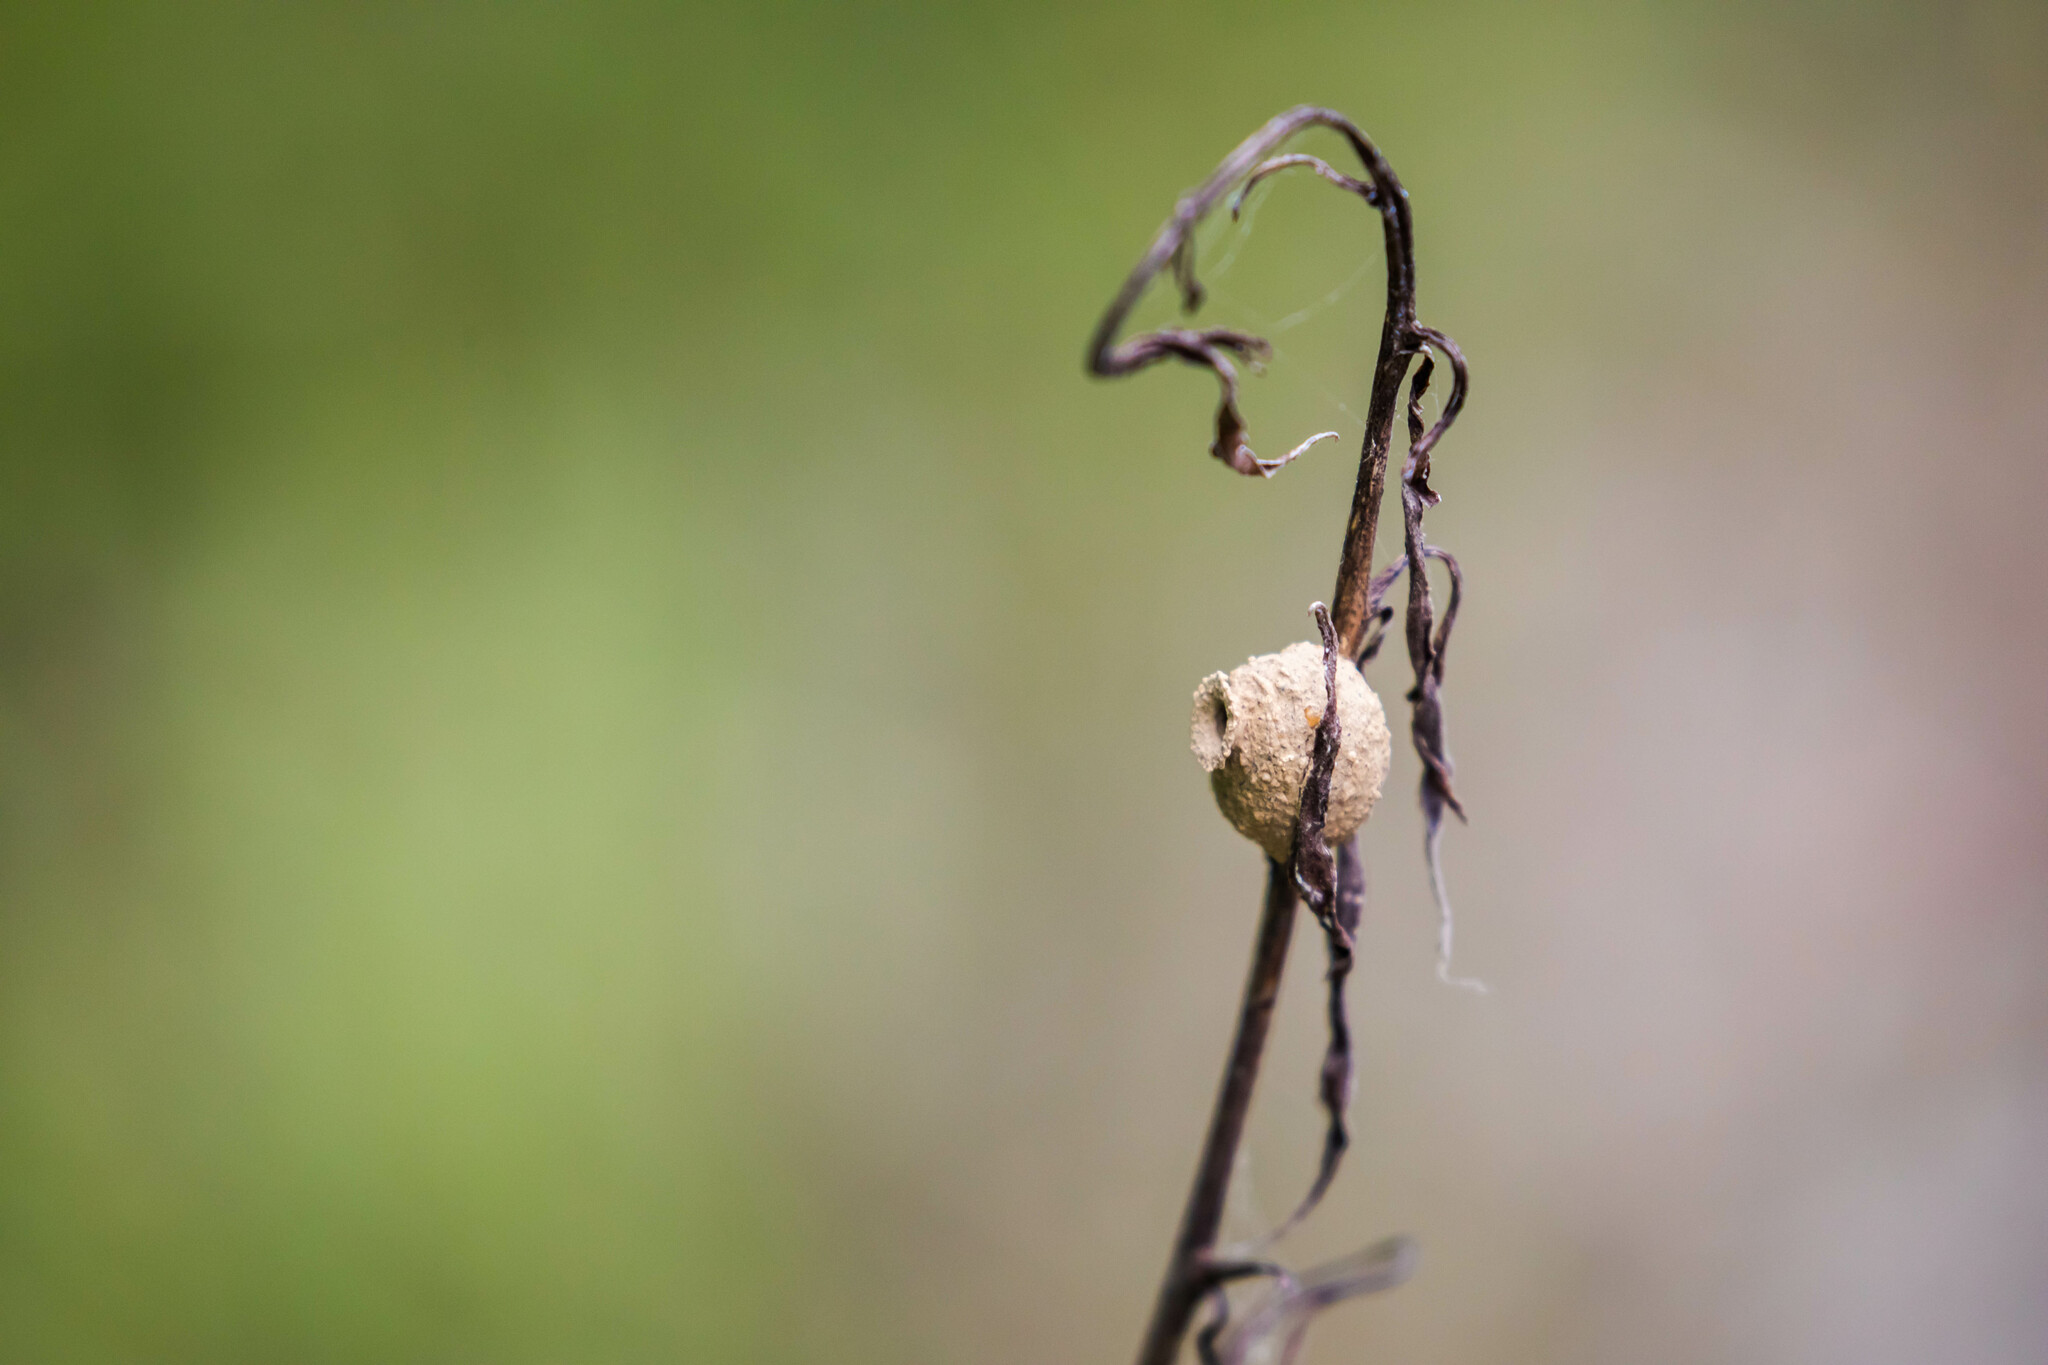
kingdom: Animalia
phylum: Arthropoda
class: Insecta
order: Hymenoptera
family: Vespidae
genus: Eumenes
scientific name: Eumenes
